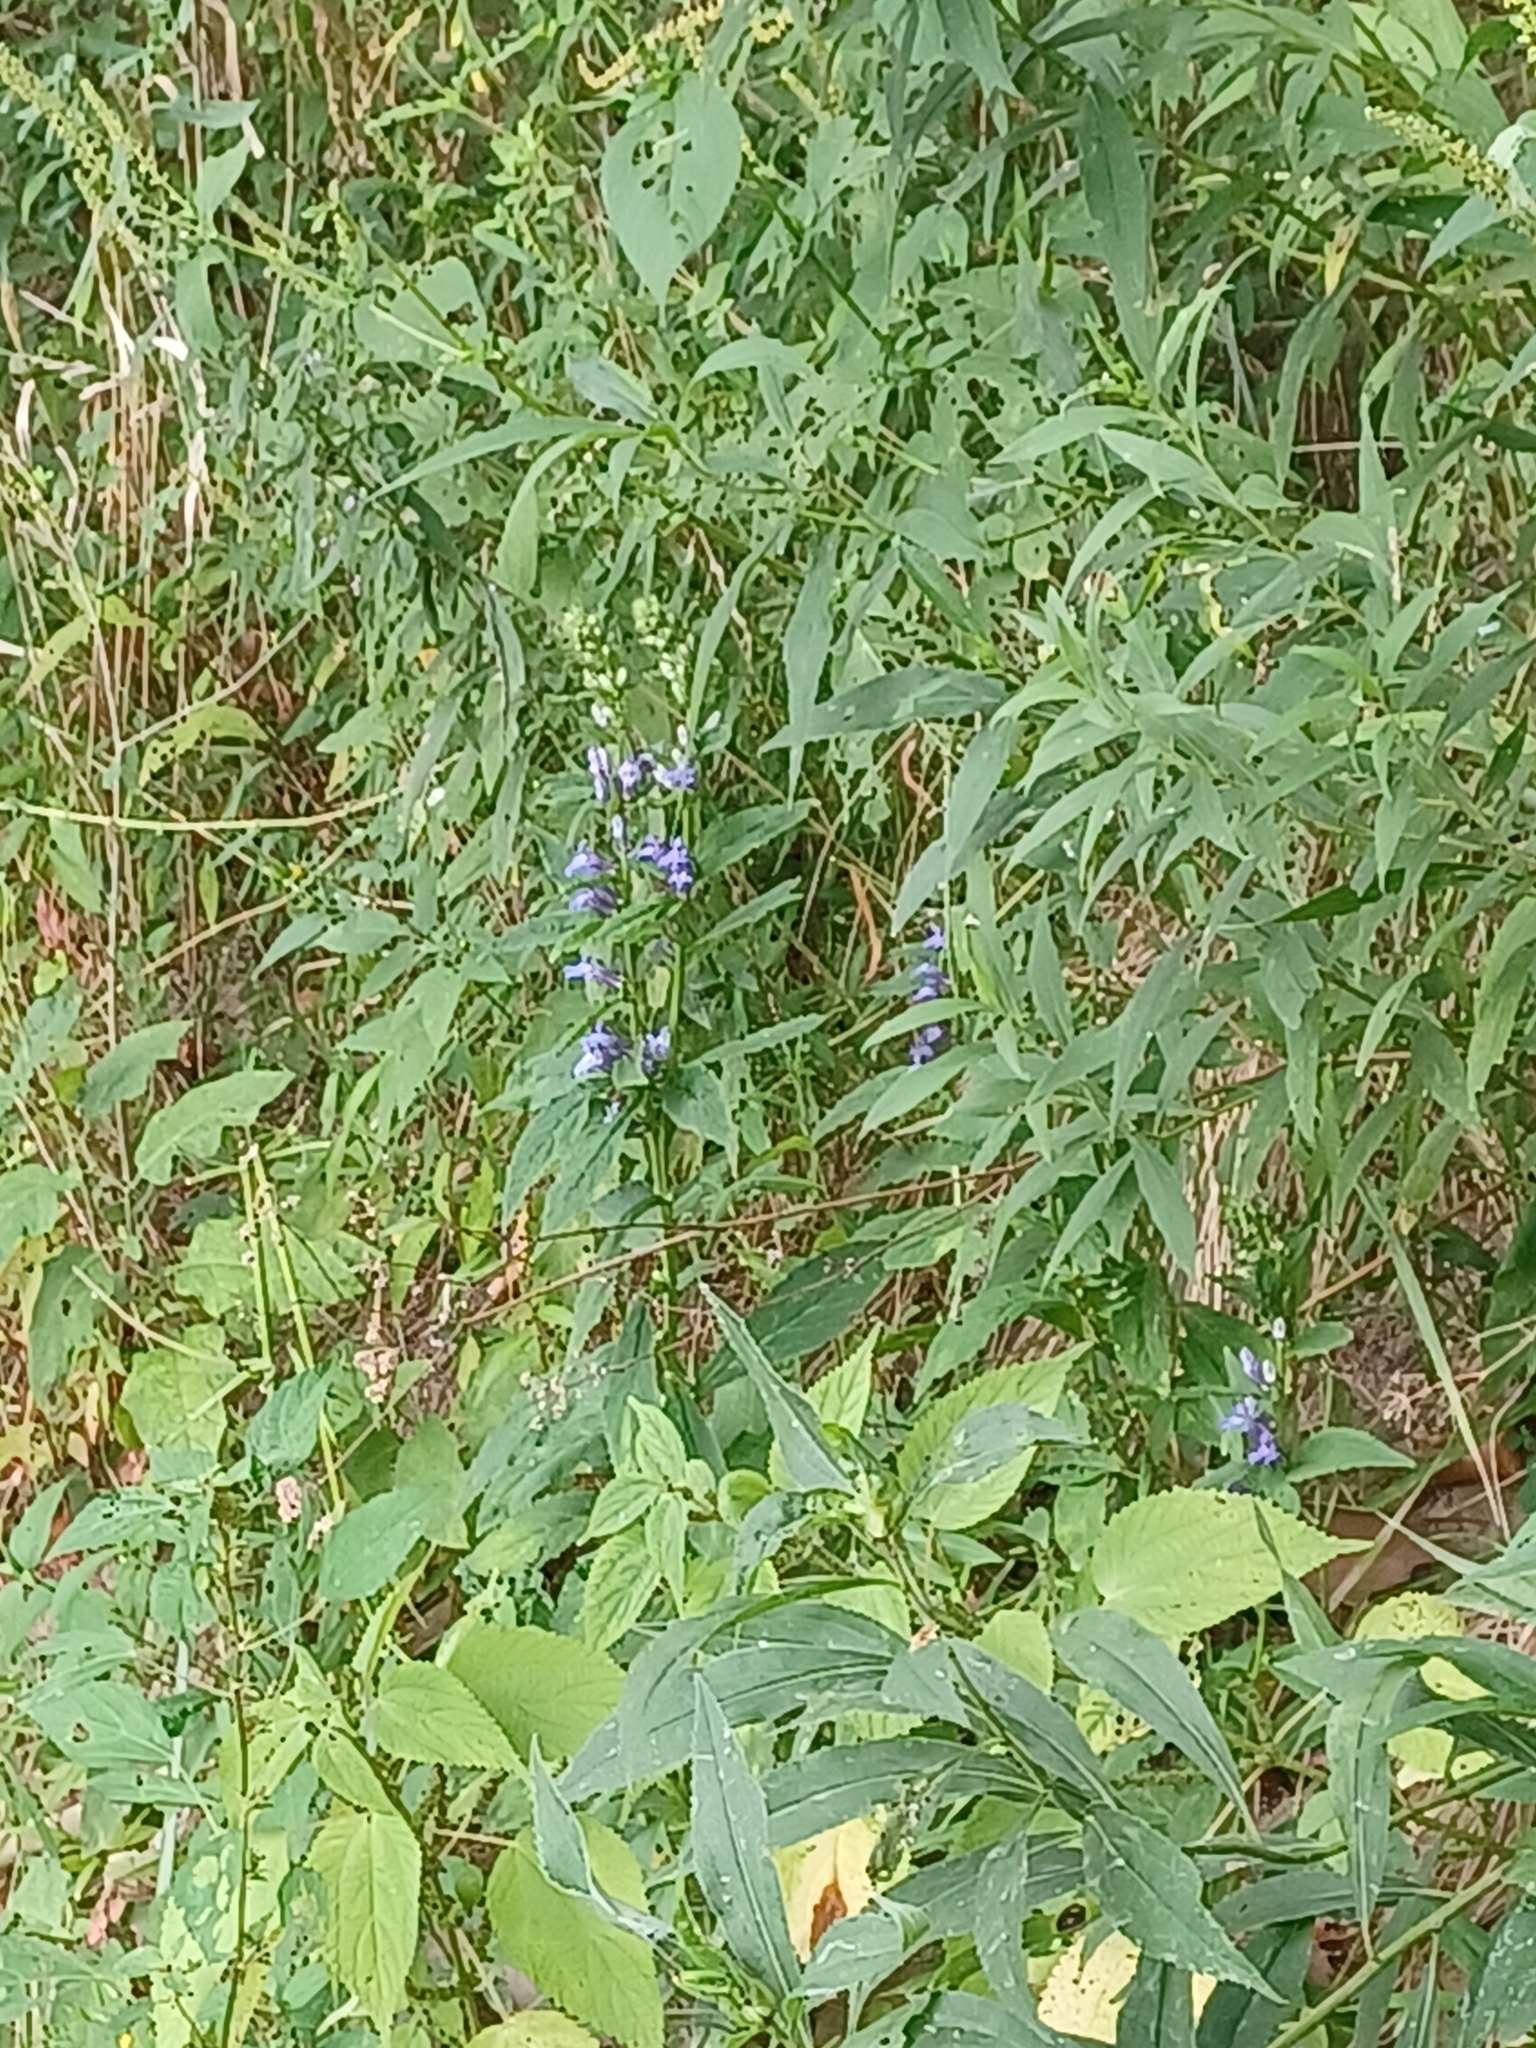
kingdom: Plantae
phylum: Tracheophyta
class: Magnoliopsida
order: Asterales
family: Campanulaceae
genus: Lobelia
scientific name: Lobelia siphilitica
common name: Great lobelia
